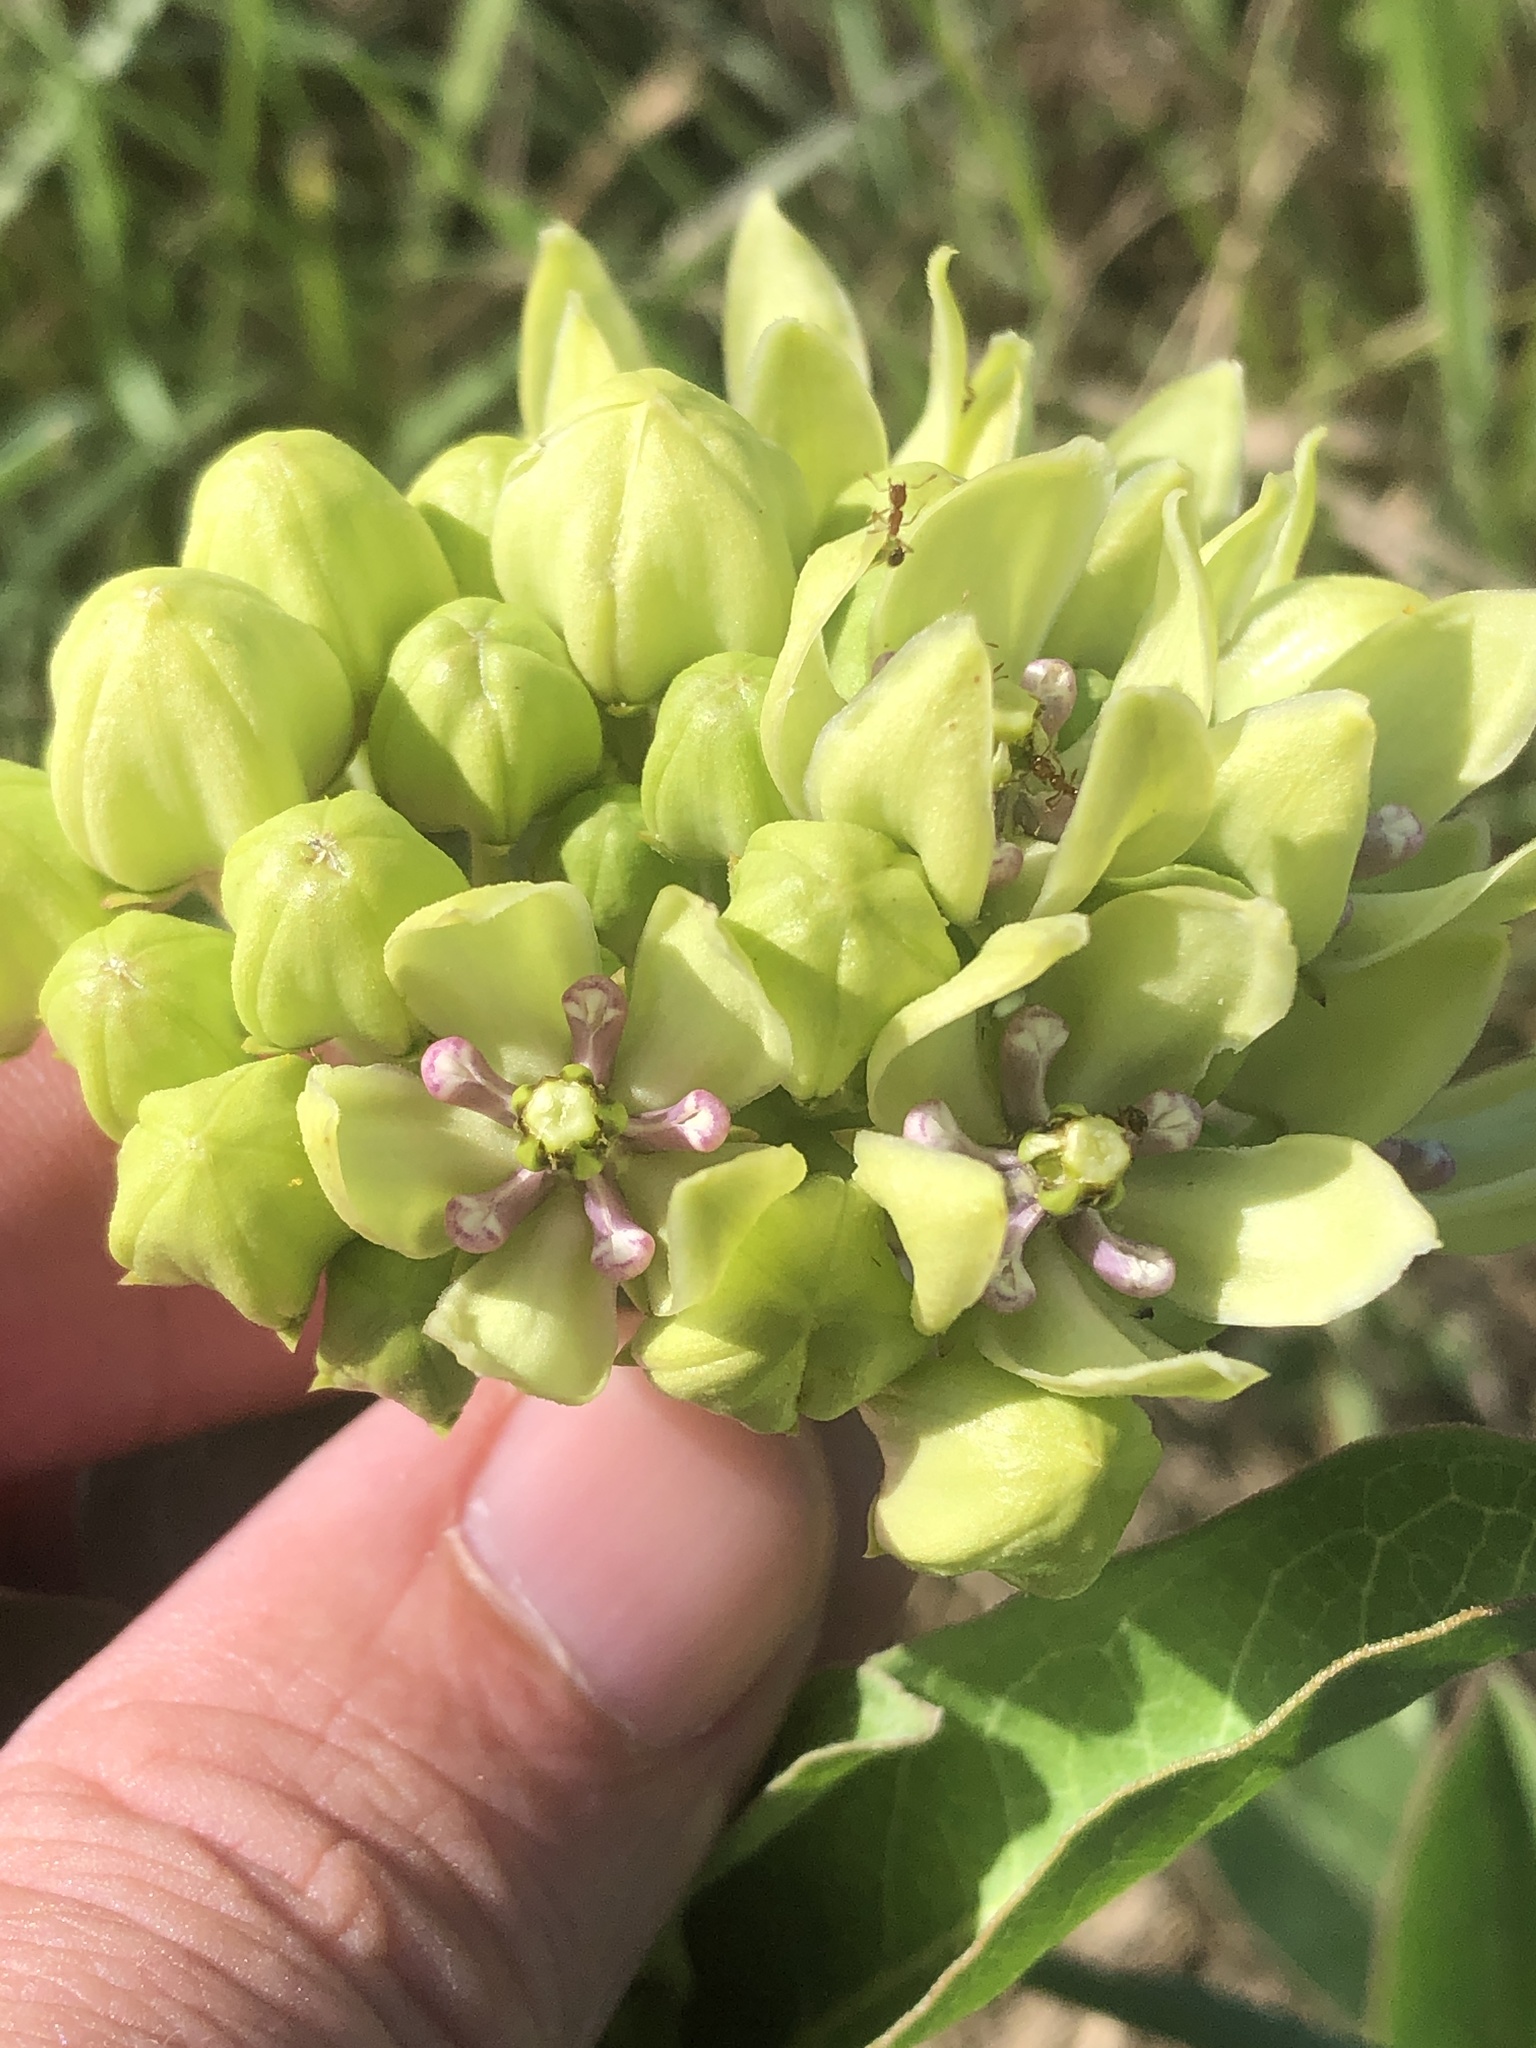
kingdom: Plantae
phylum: Tracheophyta
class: Magnoliopsida
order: Gentianales
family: Apocynaceae
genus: Asclepias
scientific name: Asclepias viridis
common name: Antelope-horns
